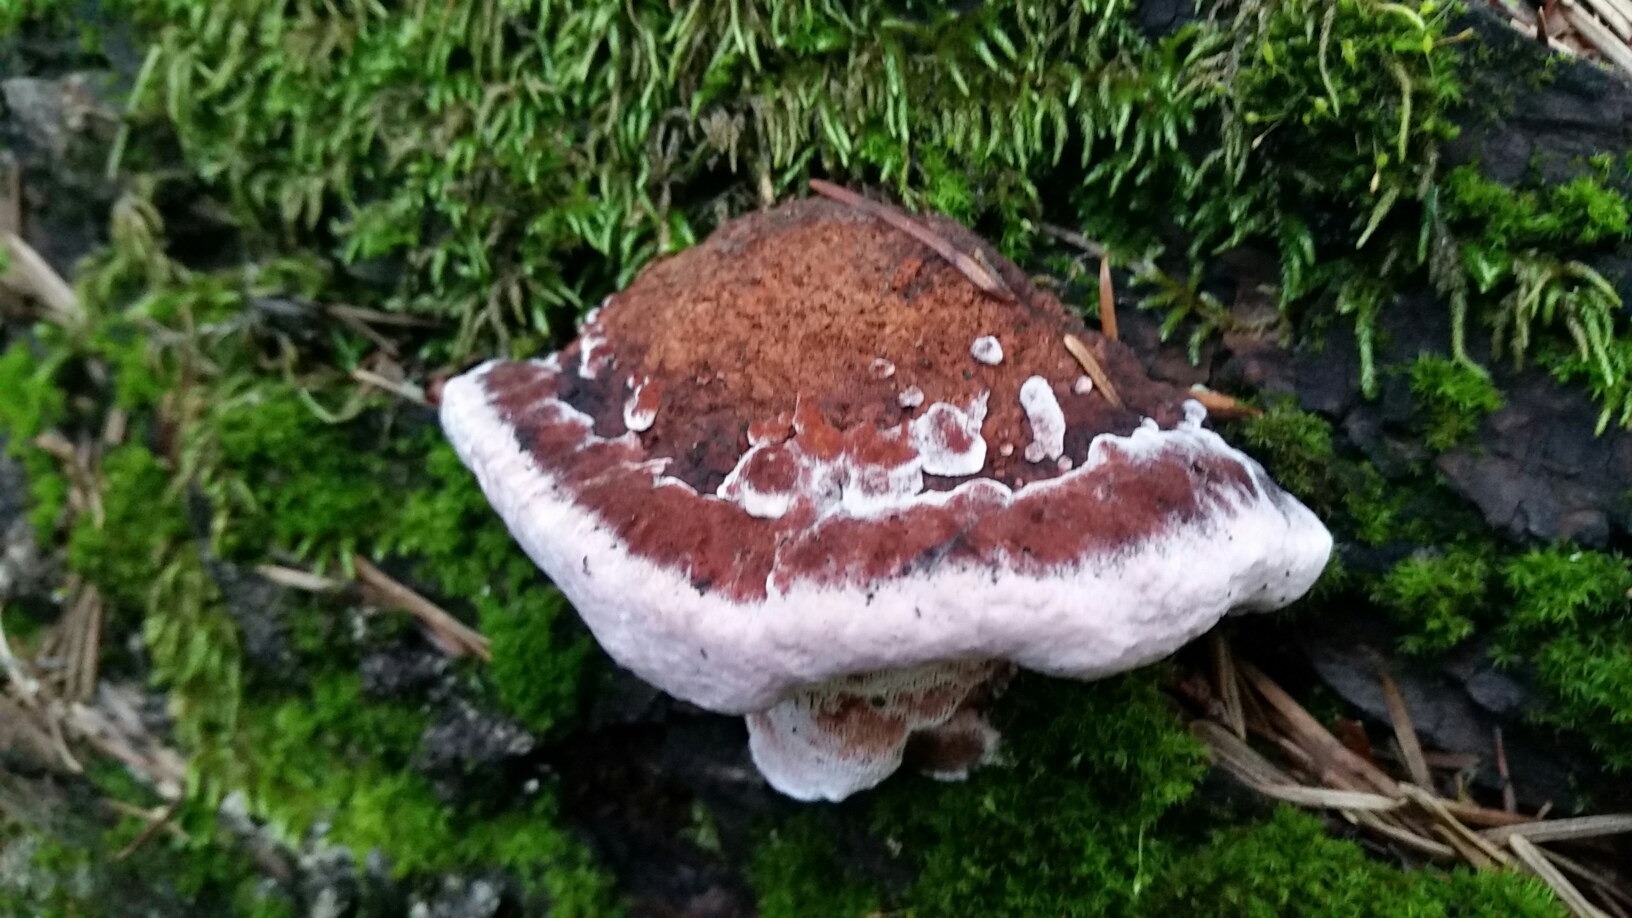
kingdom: Fungi
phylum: Basidiomycota
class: Agaricomycetes
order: Polyporales
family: Fomitopsidaceae
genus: Rhodofomes
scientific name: Rhodofomes cajanderi
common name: Rosy conk
